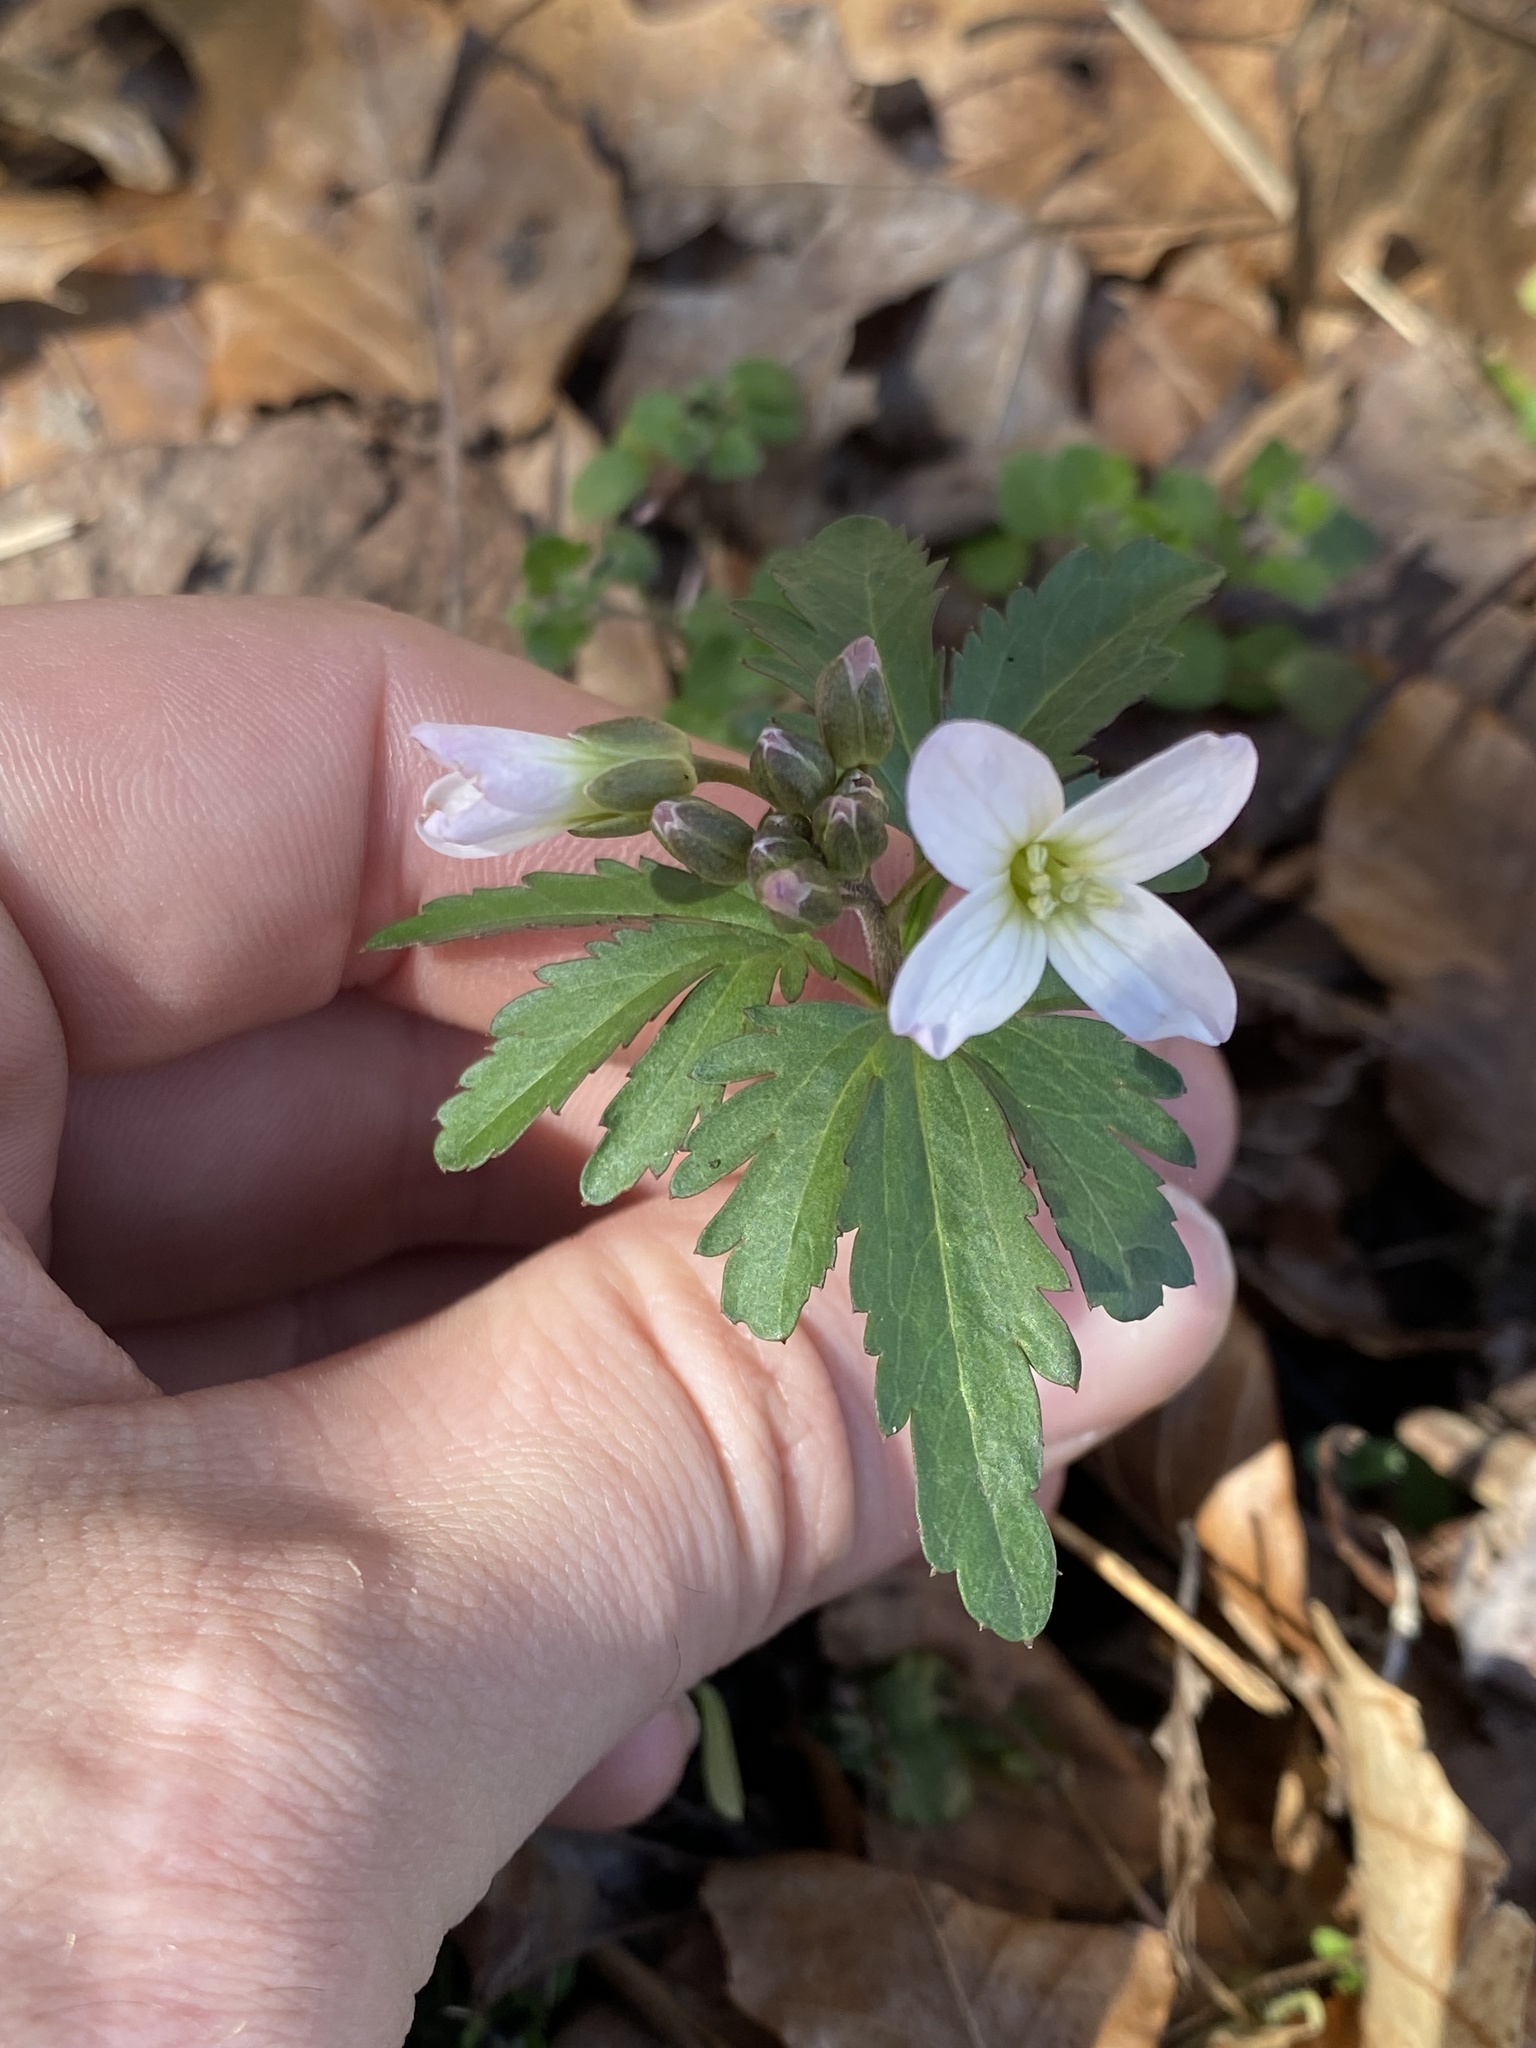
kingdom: Plantae
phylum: Tracheophyta
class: Magnoliopsida
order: Brassicales
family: Brassicaceae
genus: Cardamine
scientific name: Cardamine concatenata
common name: Cut-leaf toothcup
